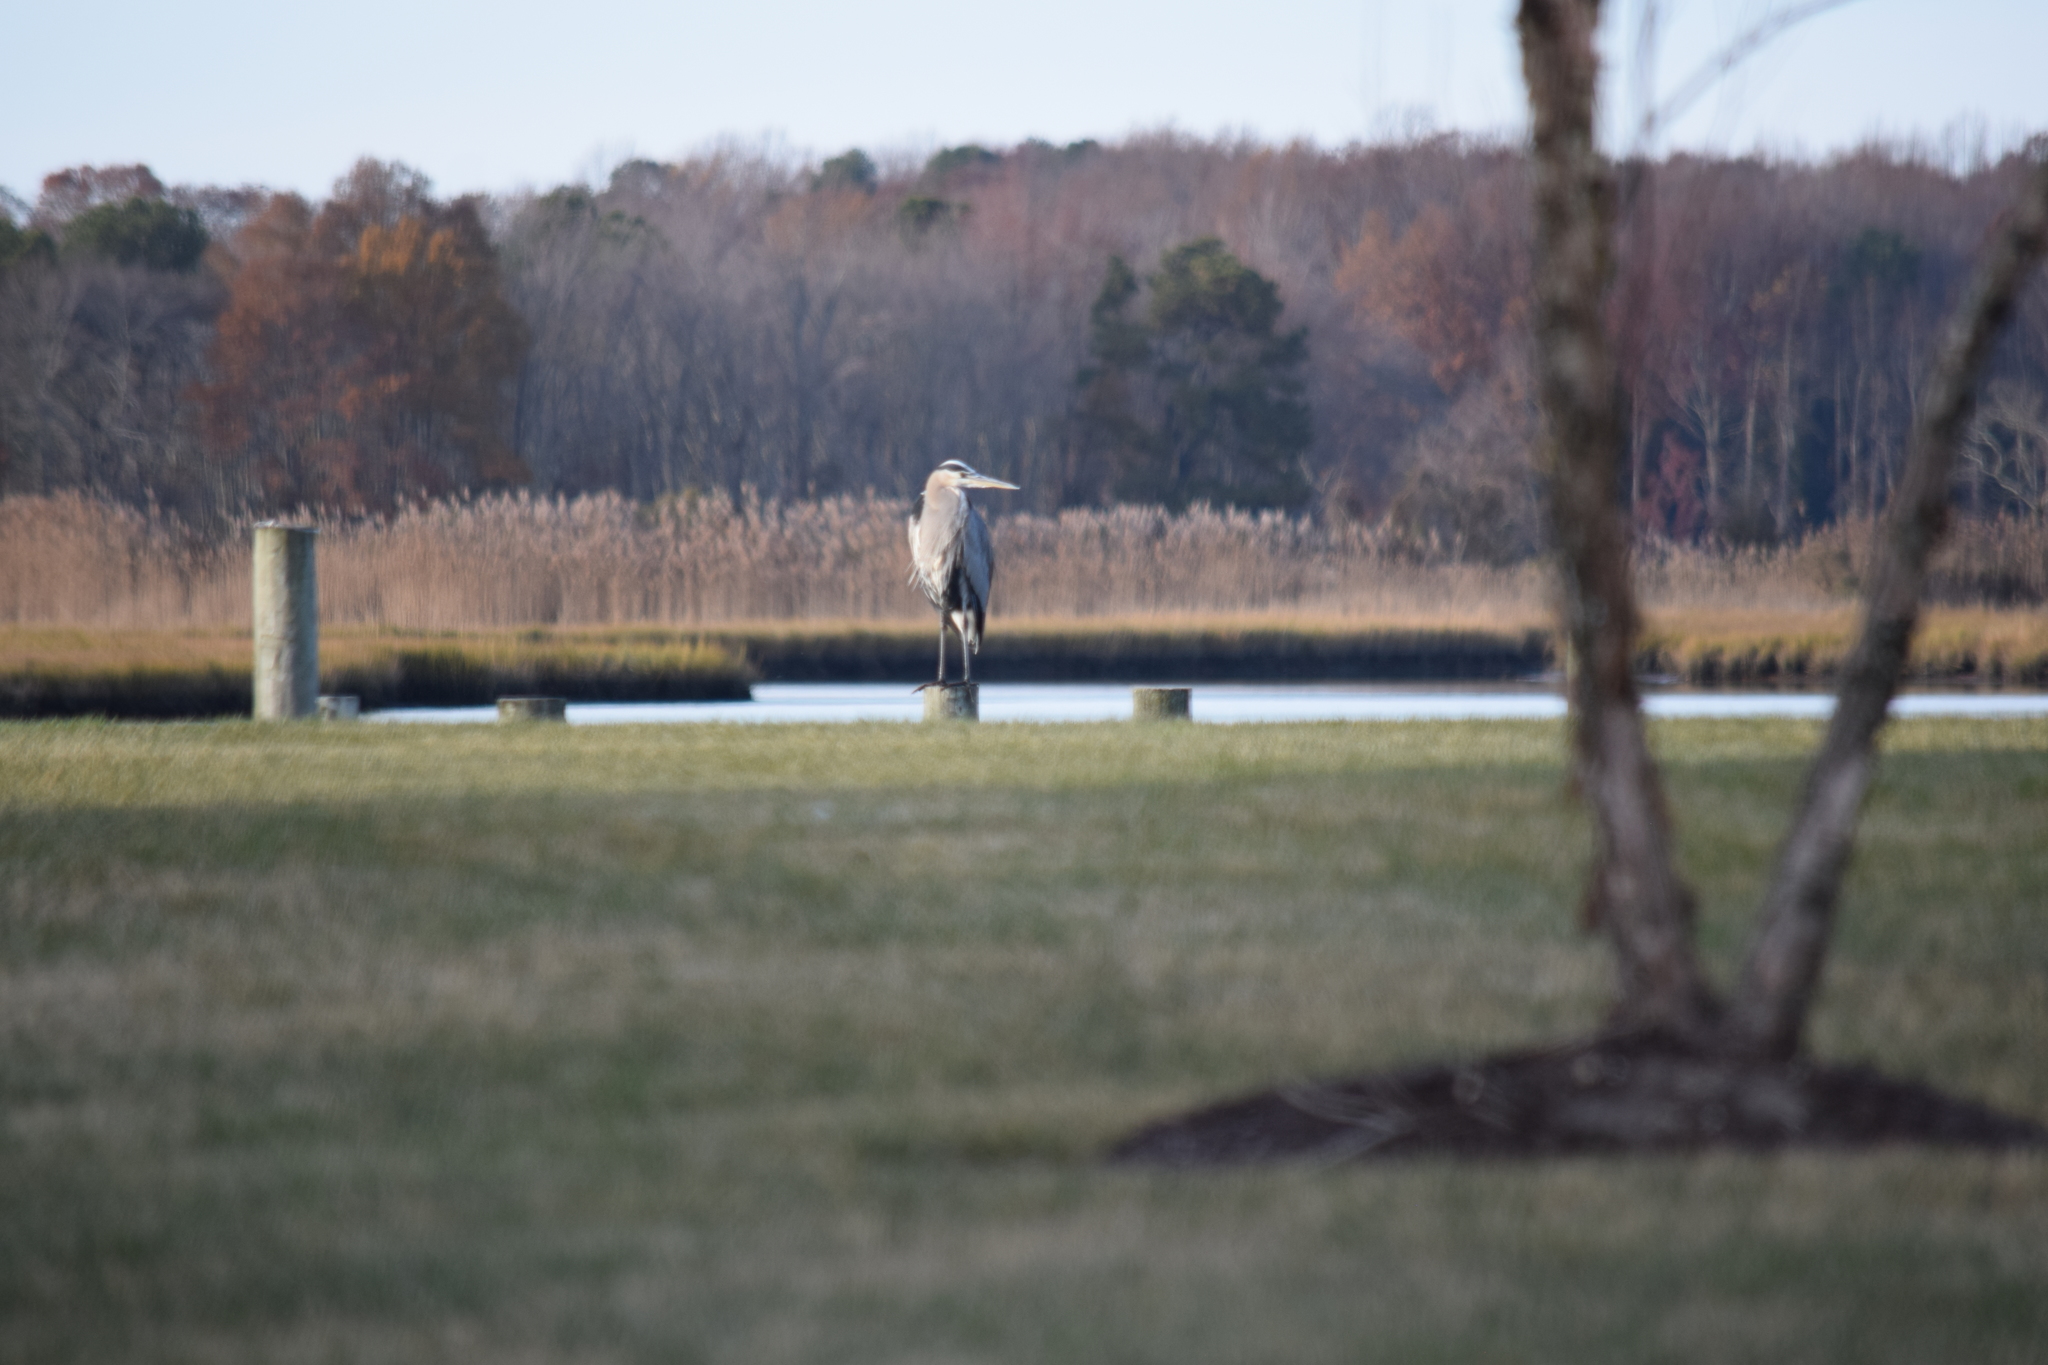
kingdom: Animalia
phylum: Chordata
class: Aves
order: Pelecaniformes
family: Ardeidae
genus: Ardea
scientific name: Ardea herodias
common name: Great blue heron
